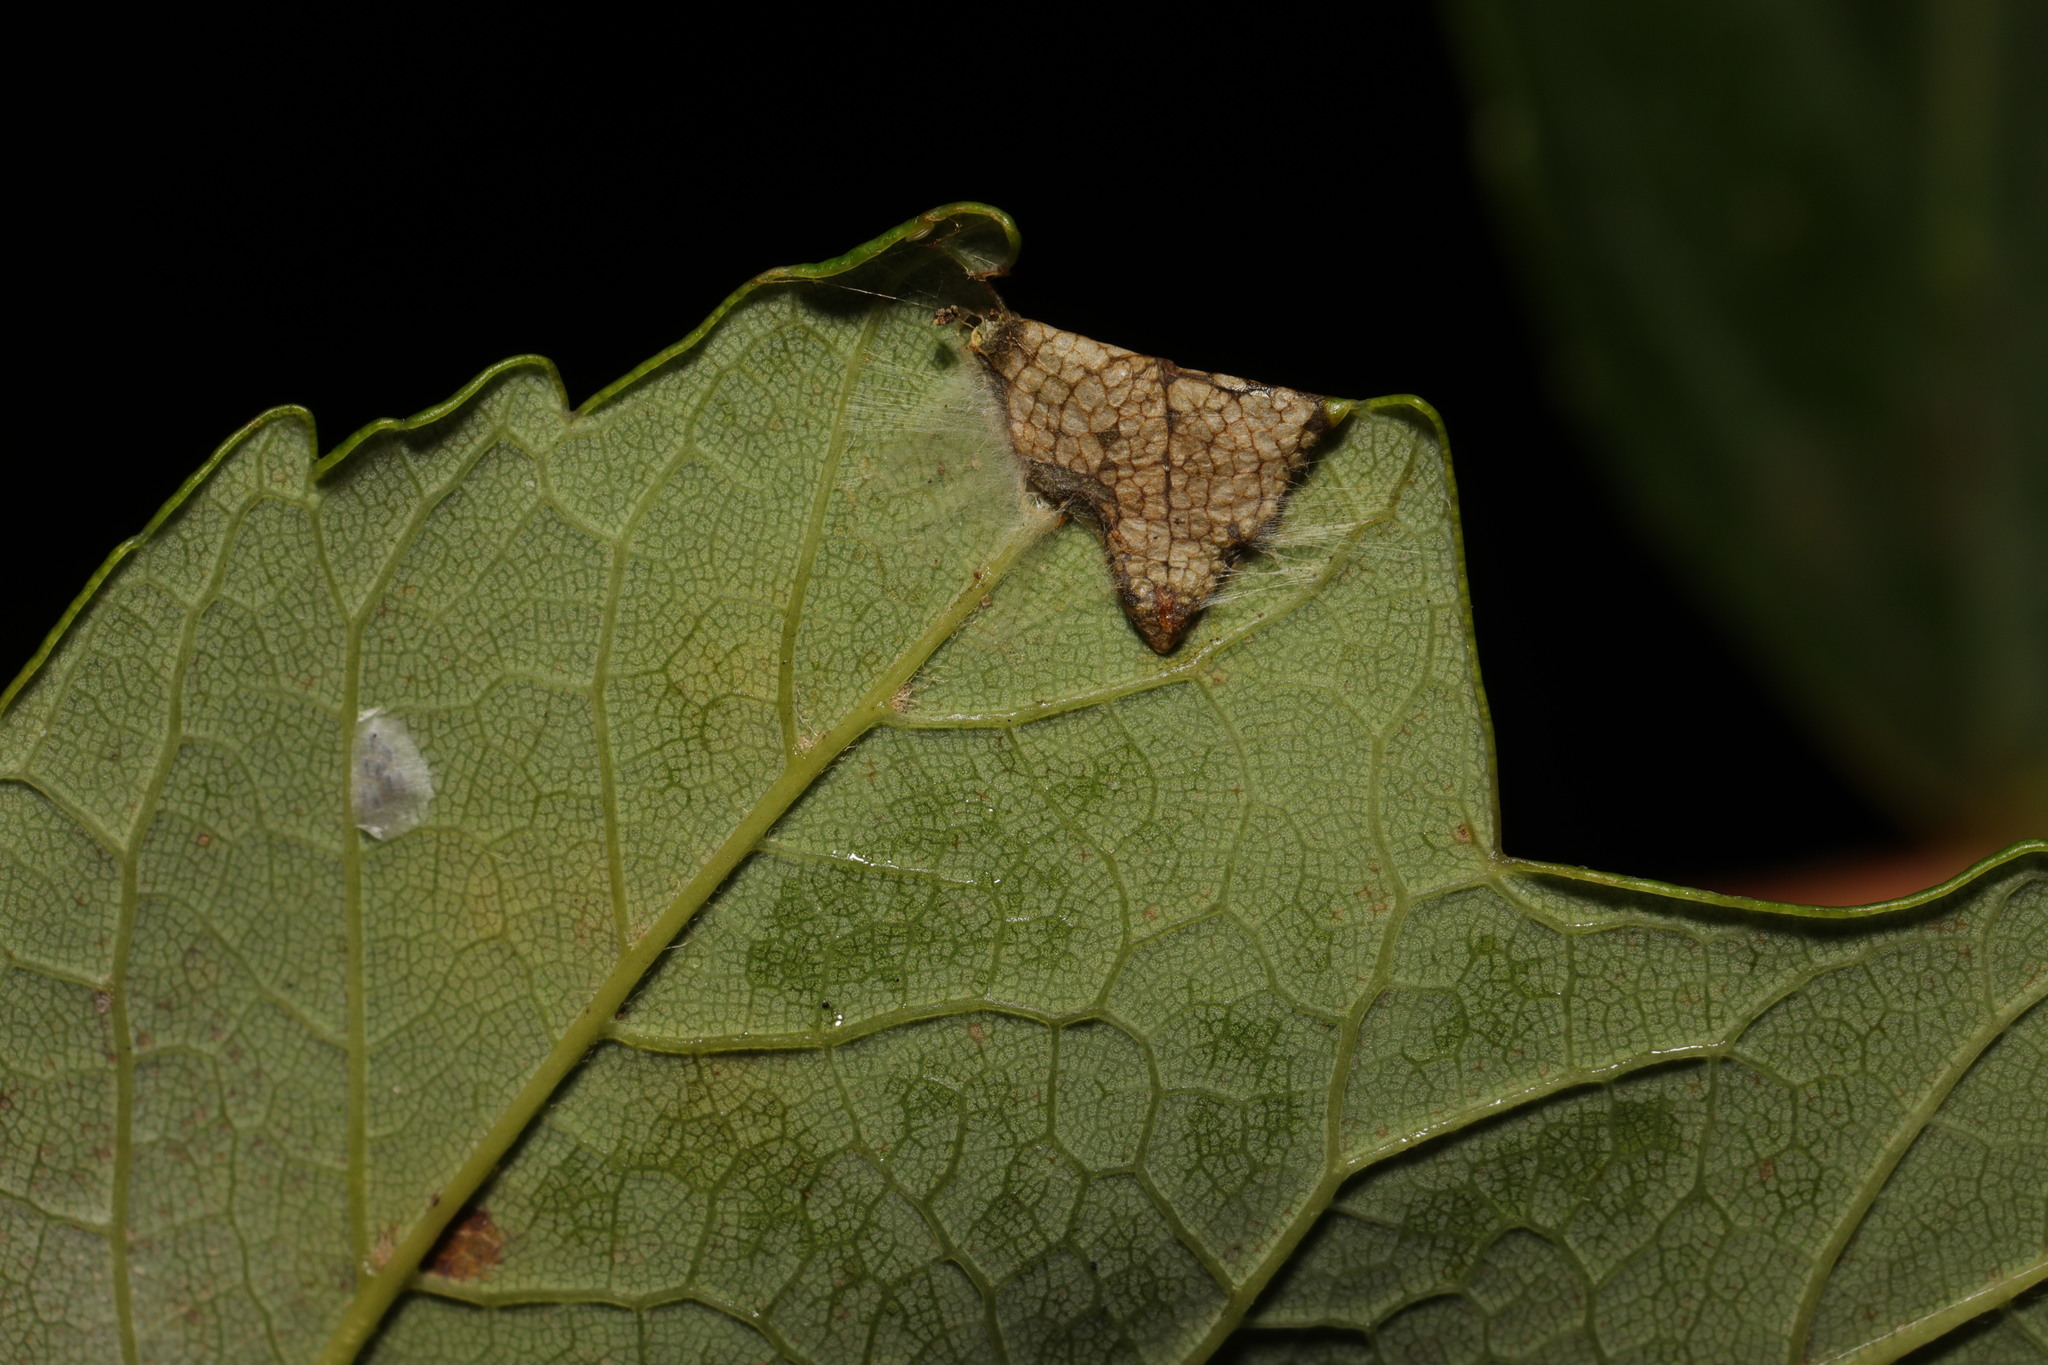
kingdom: Animalia
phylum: Arthropoda
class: Insecta
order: Lepidoptera
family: Gracillariidae
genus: Caloptilia
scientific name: Caloptilia rufipennella
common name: Small red slender
